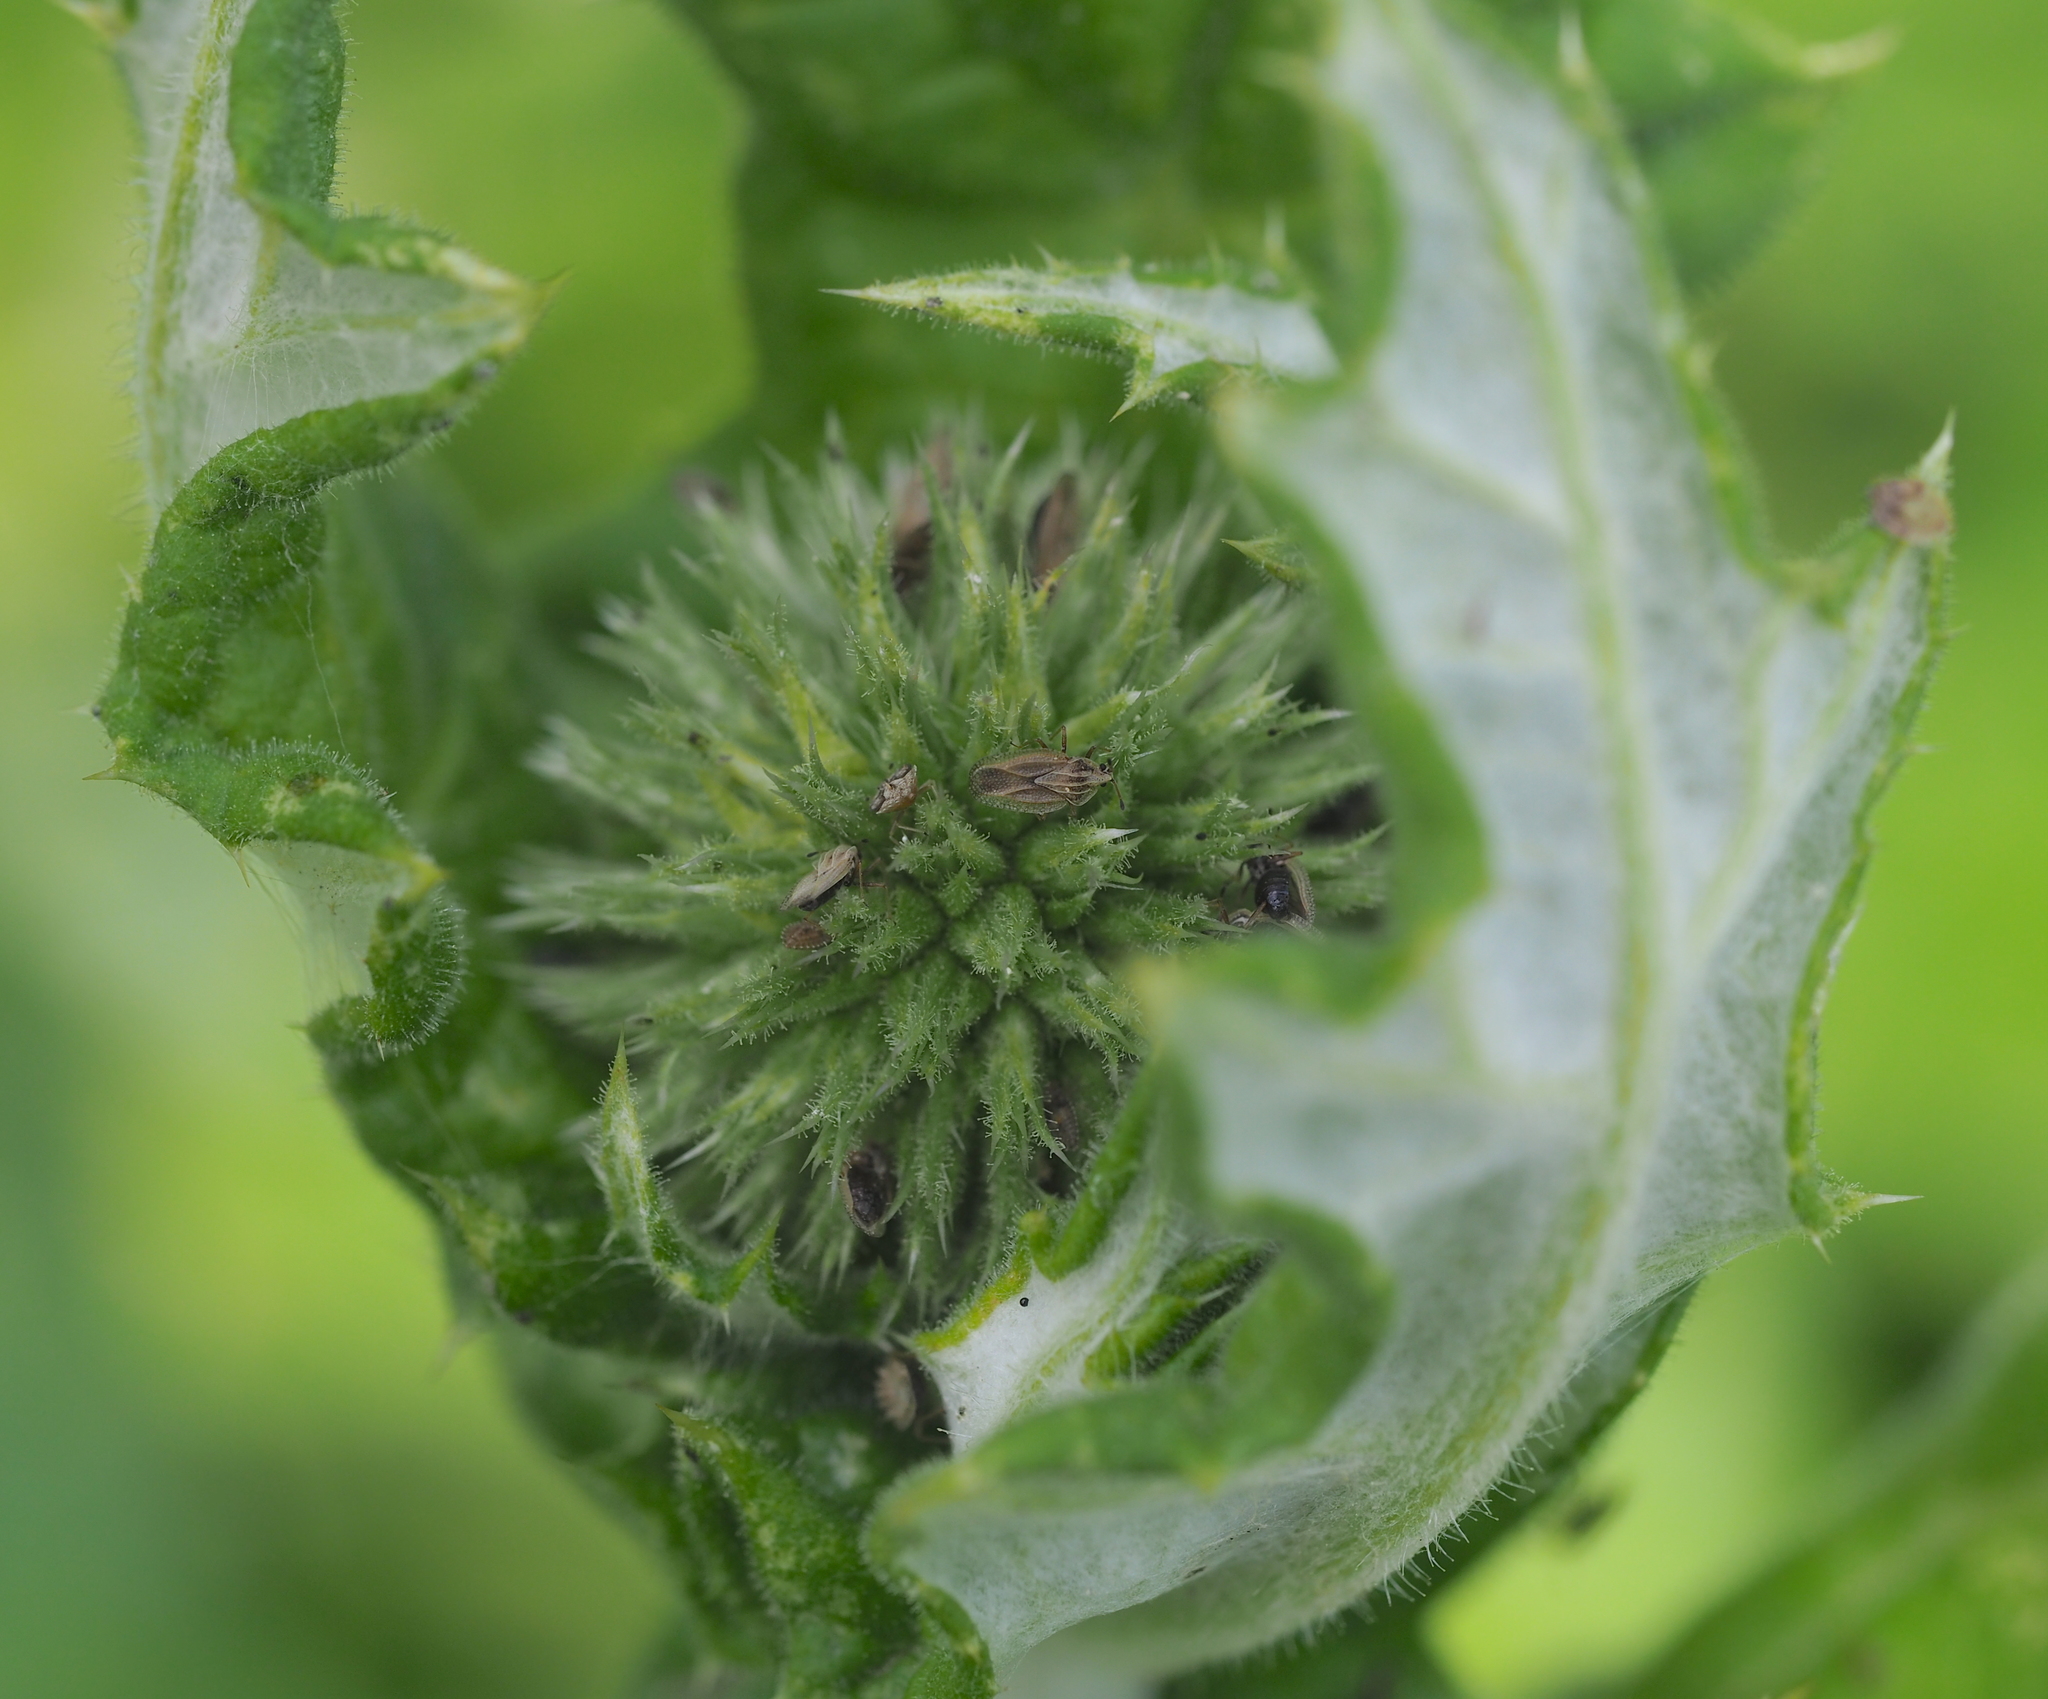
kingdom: Plantae
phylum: Tracheophyta
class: Magnoliopsida
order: Asterales
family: Asteraceae
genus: Echinops
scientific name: Echinops sphaerocephalus
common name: Glandular globe-thistle
